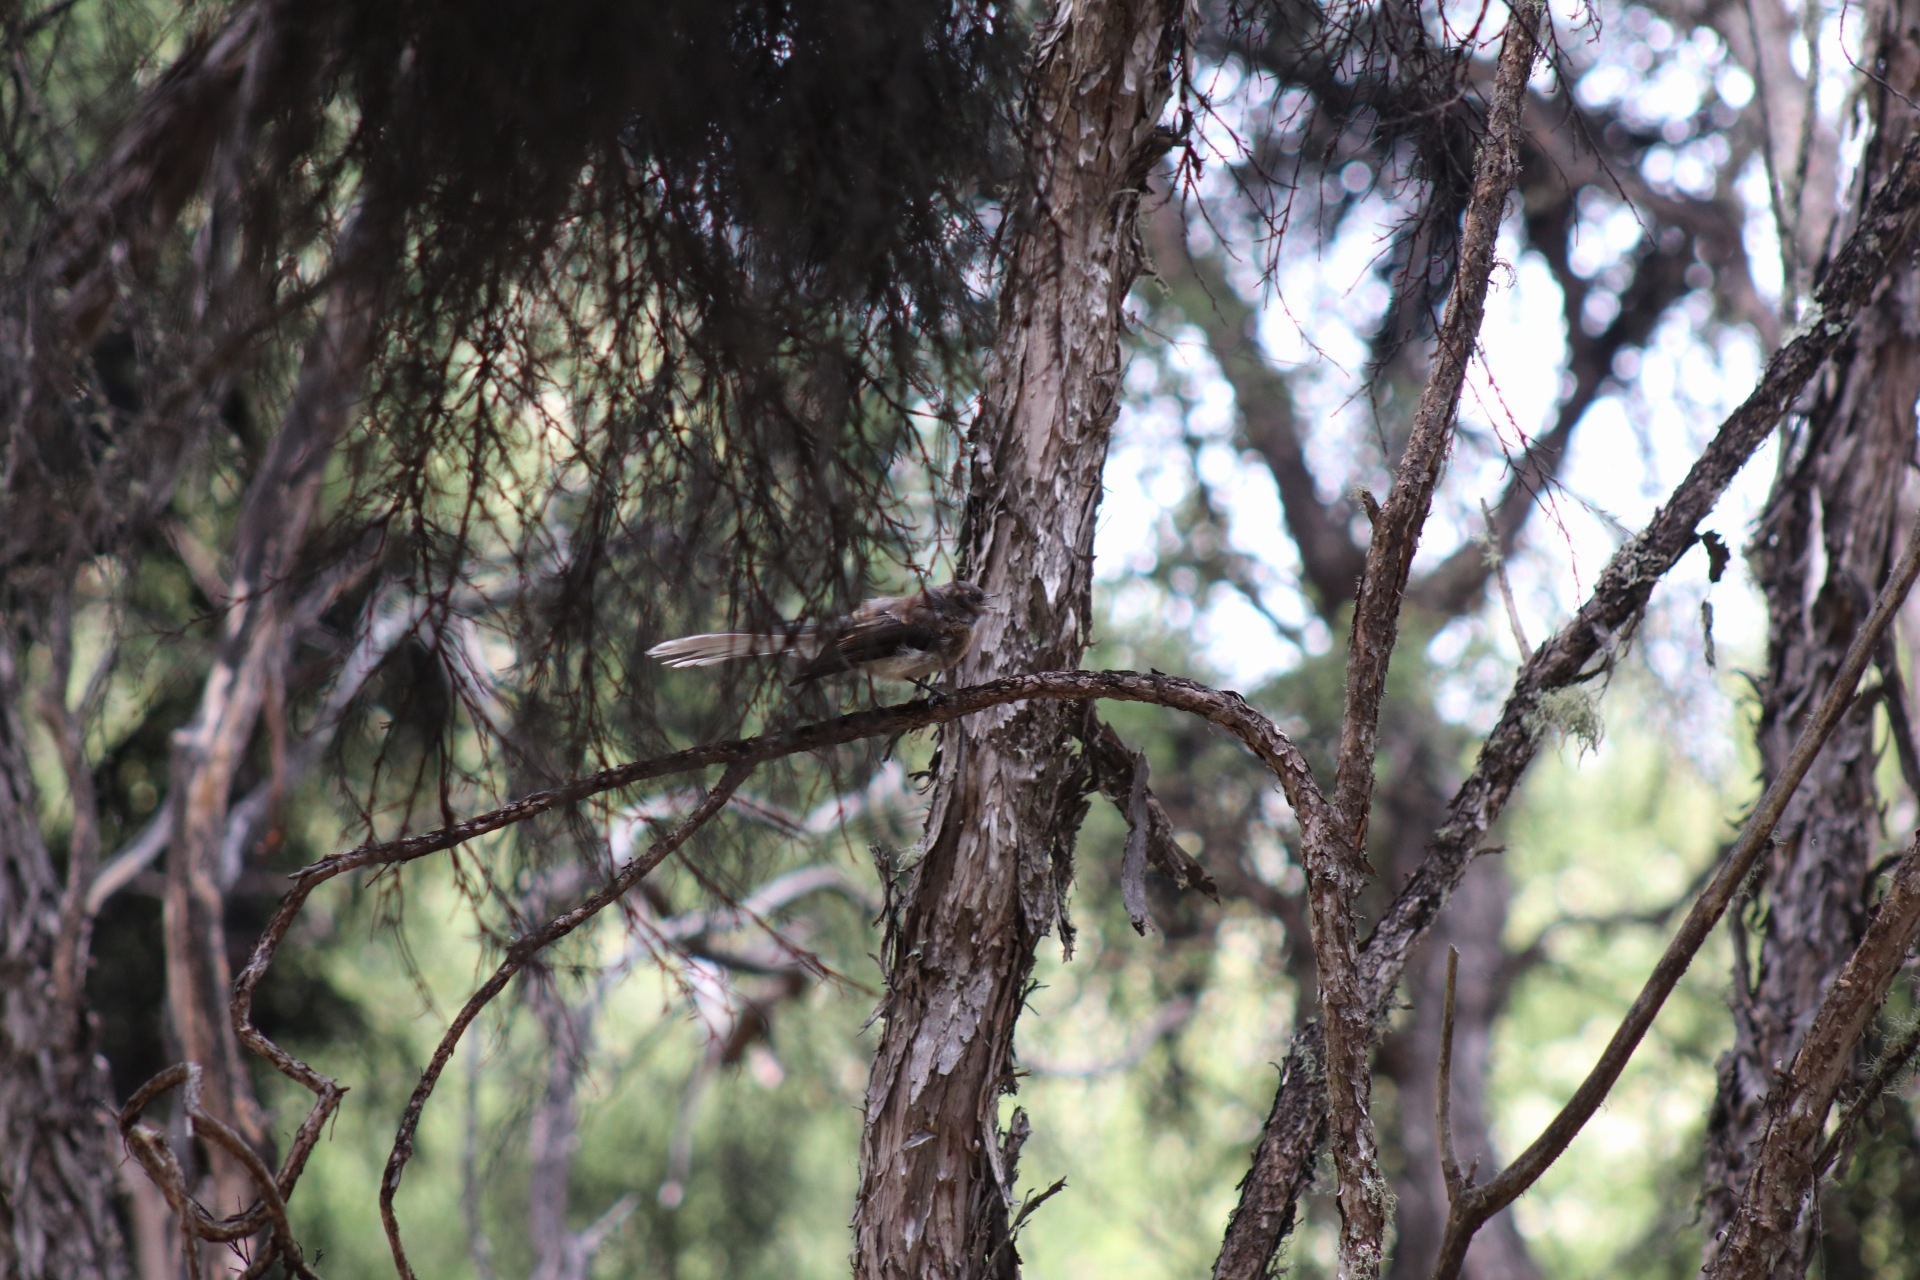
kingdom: Animalia
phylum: Chordata
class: Aves
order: Passeriformes
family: Rhipiduridae
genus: Rhipidura
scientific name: Rhipidura fuliginosa
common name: New zealand fantail
